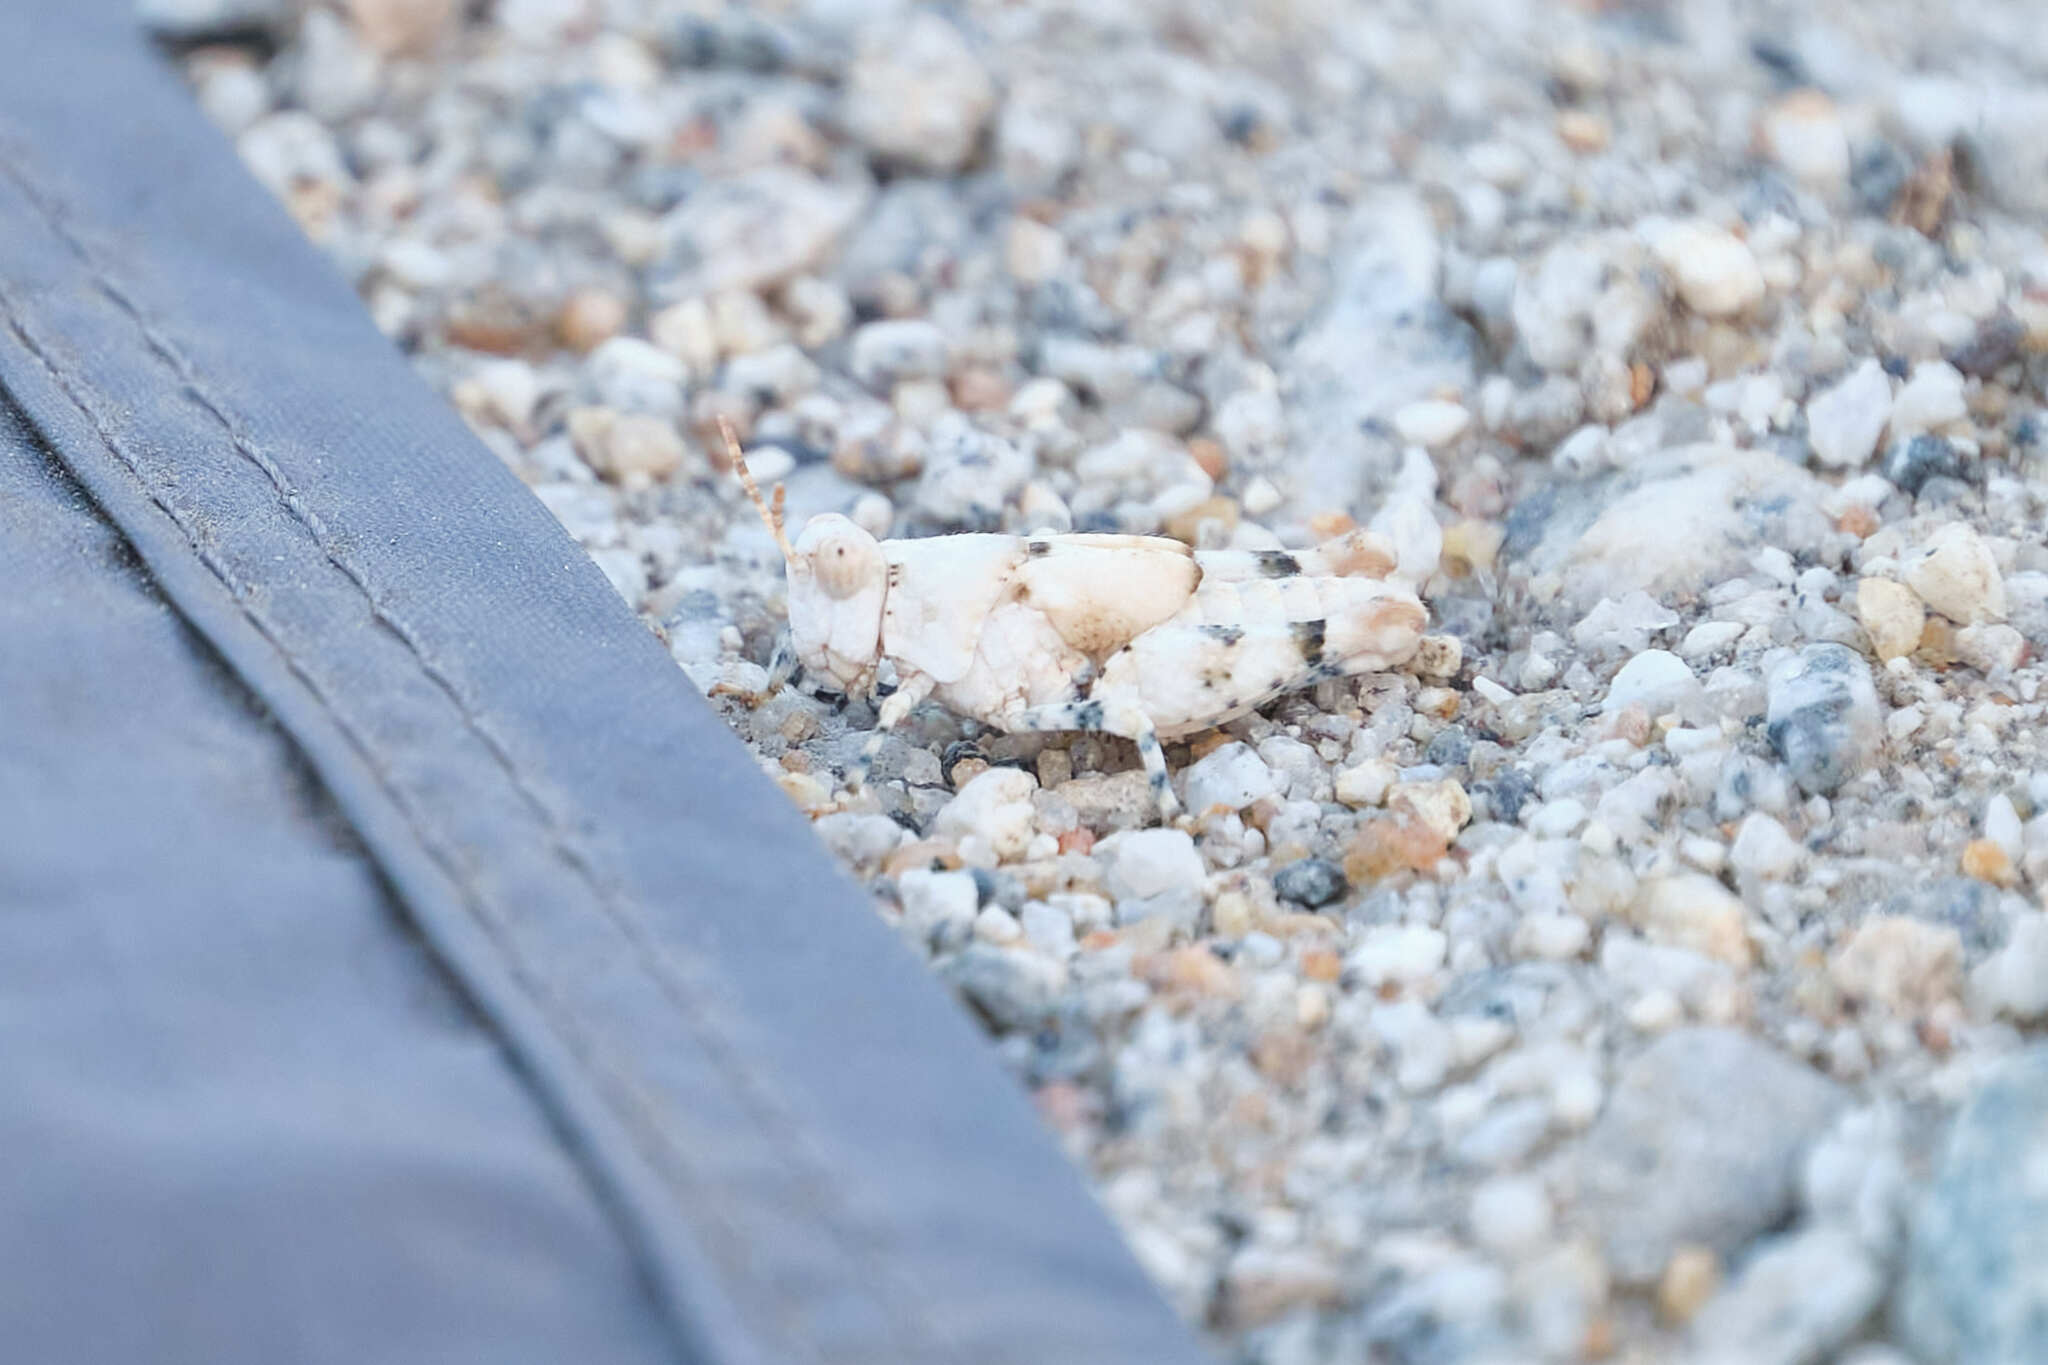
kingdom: Animalia
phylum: Arthropoda
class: Insecta
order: Orthoptera
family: Acrididae
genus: Cibolacris
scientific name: Cibolacris parviceps
